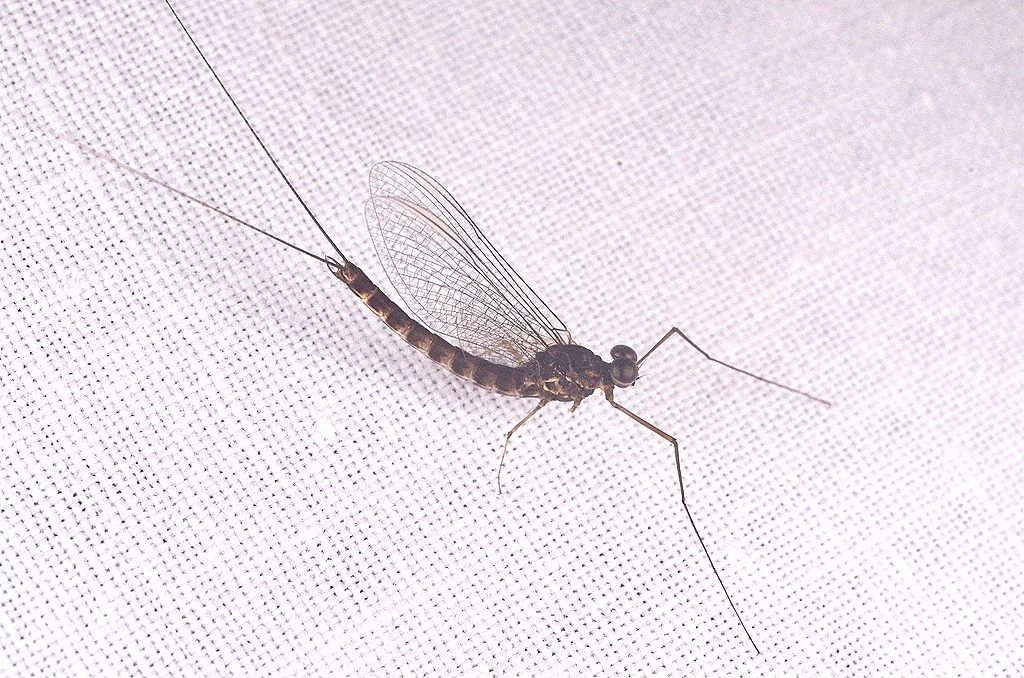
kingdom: Animalia
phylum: Arthropoda
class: Insecta
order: Ephemeroptera
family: Siphlonuridae
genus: Siphlonurus
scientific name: Siphlonurus lacustris
